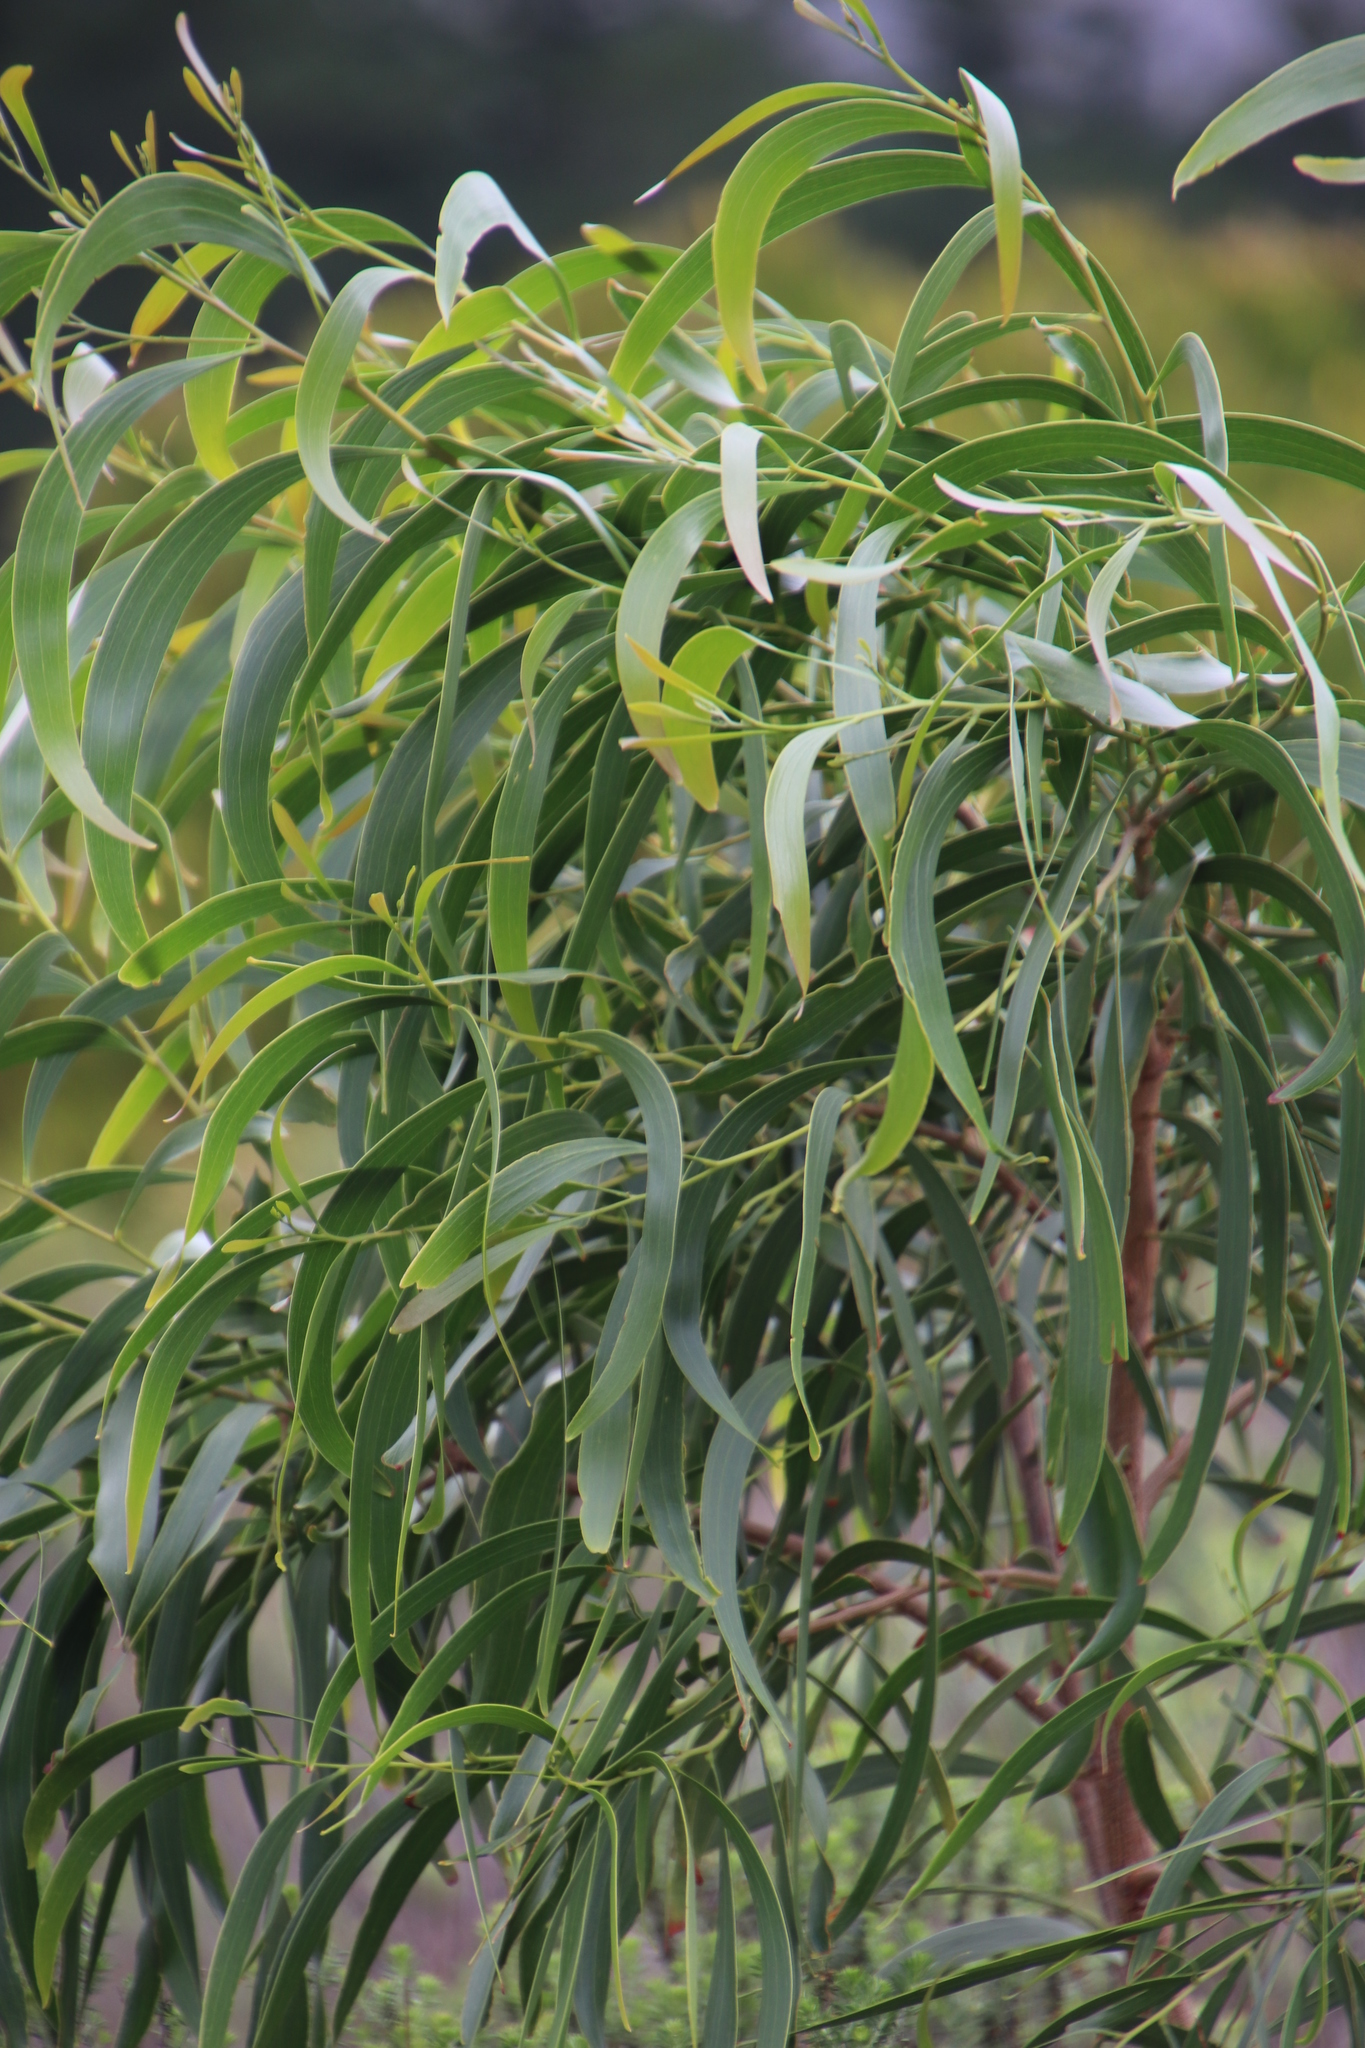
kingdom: Plantae
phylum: Tracheophyta
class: Magnoliopsida
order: Fabales
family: Fabaceae
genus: Acacia
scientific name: Acacia implexa
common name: Black wattle
